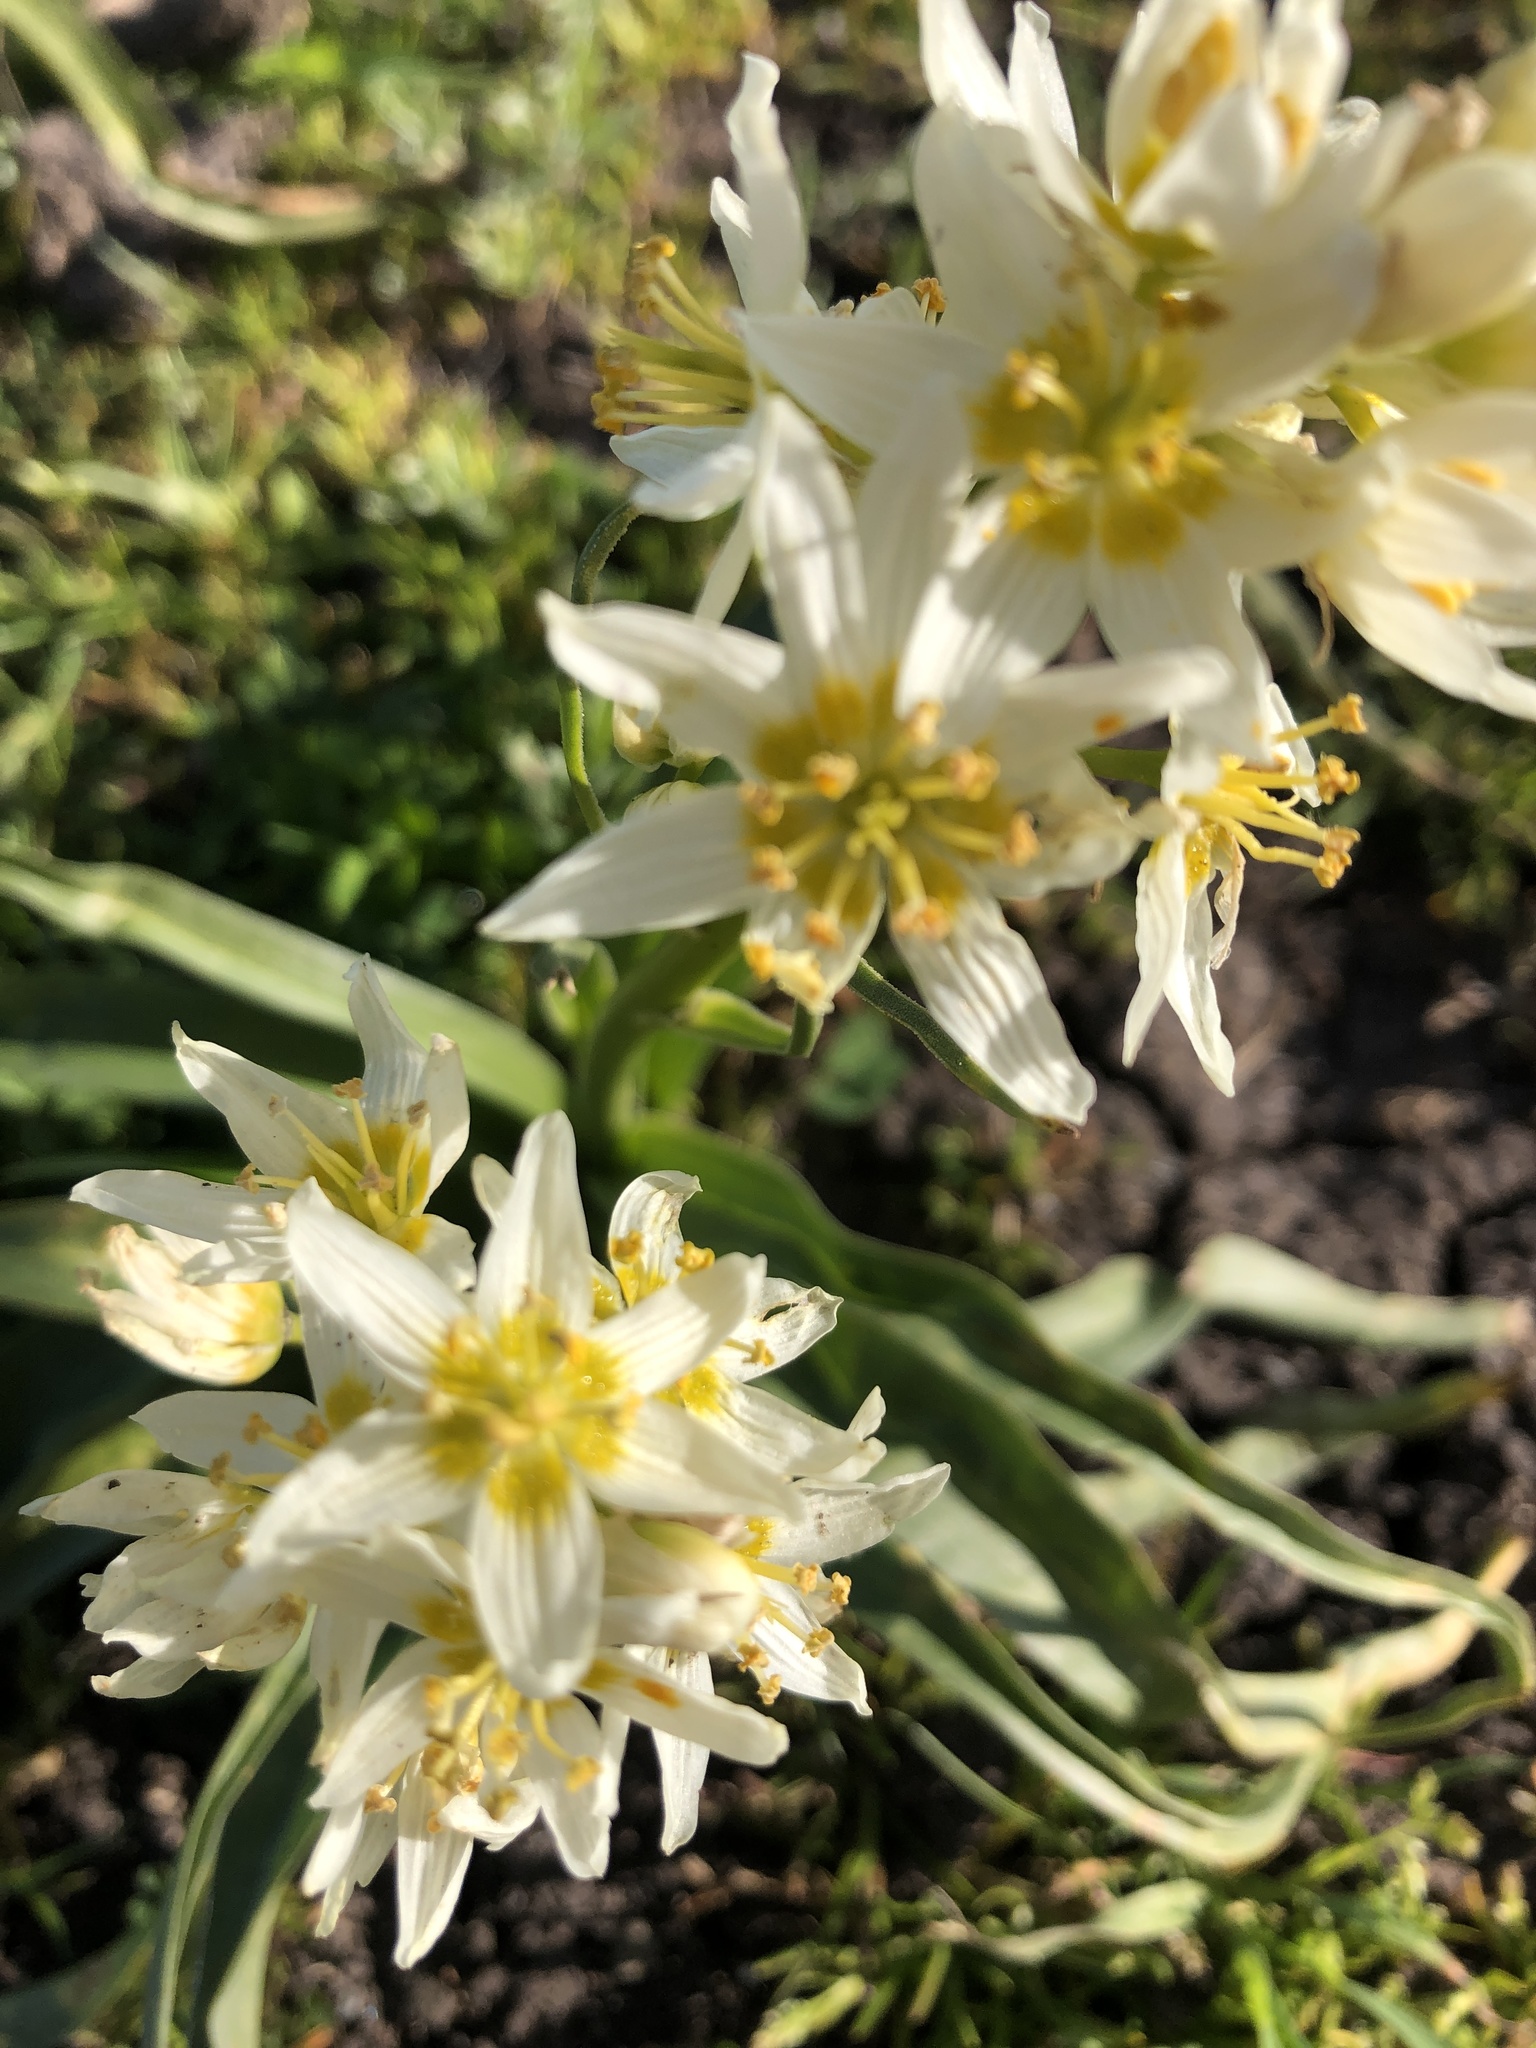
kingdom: Plantae
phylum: Tracheophyta
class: Liliopsida
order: Liliales
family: Melanthiaceae
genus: Toxicoscordion
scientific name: Toxicoscordion fremontii
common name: Fremont's death camas
